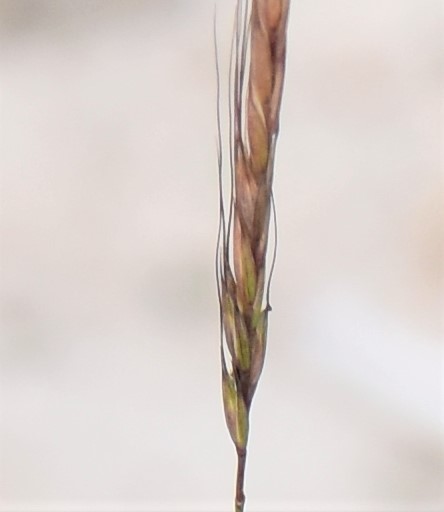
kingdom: Plantae
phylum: Tracheophyta
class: Liliopsida
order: Poales
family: Poaceae
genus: Elymus
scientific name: Elymus violaceus
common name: Arctic wheatgrass
